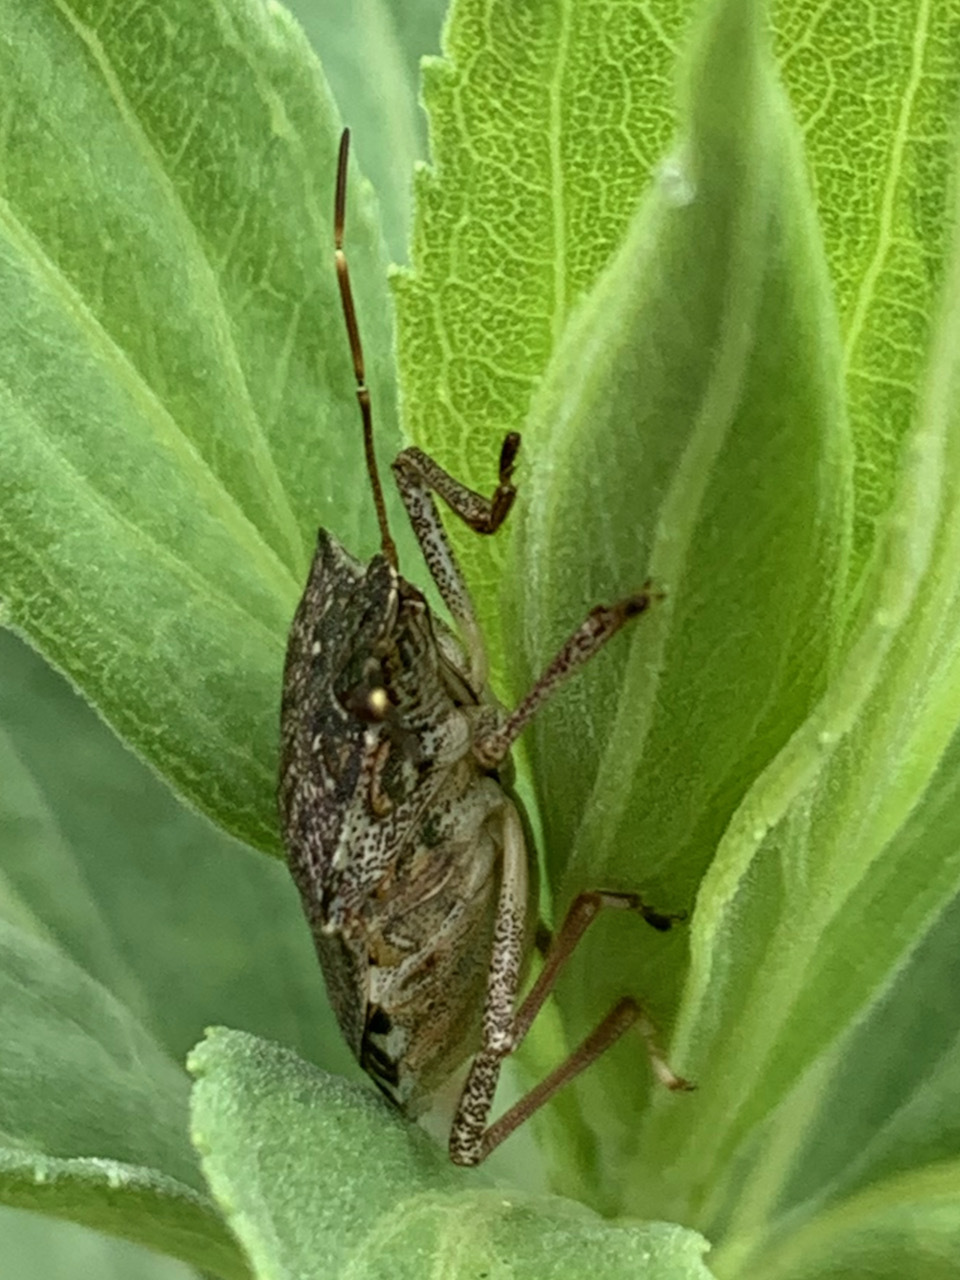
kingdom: Animalia
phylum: Arthropoda
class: Insecta
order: Hemiptera
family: Pentatomidae
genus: Halyomorpha
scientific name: Halyomorpha halys
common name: Brown marmorated stink bug
